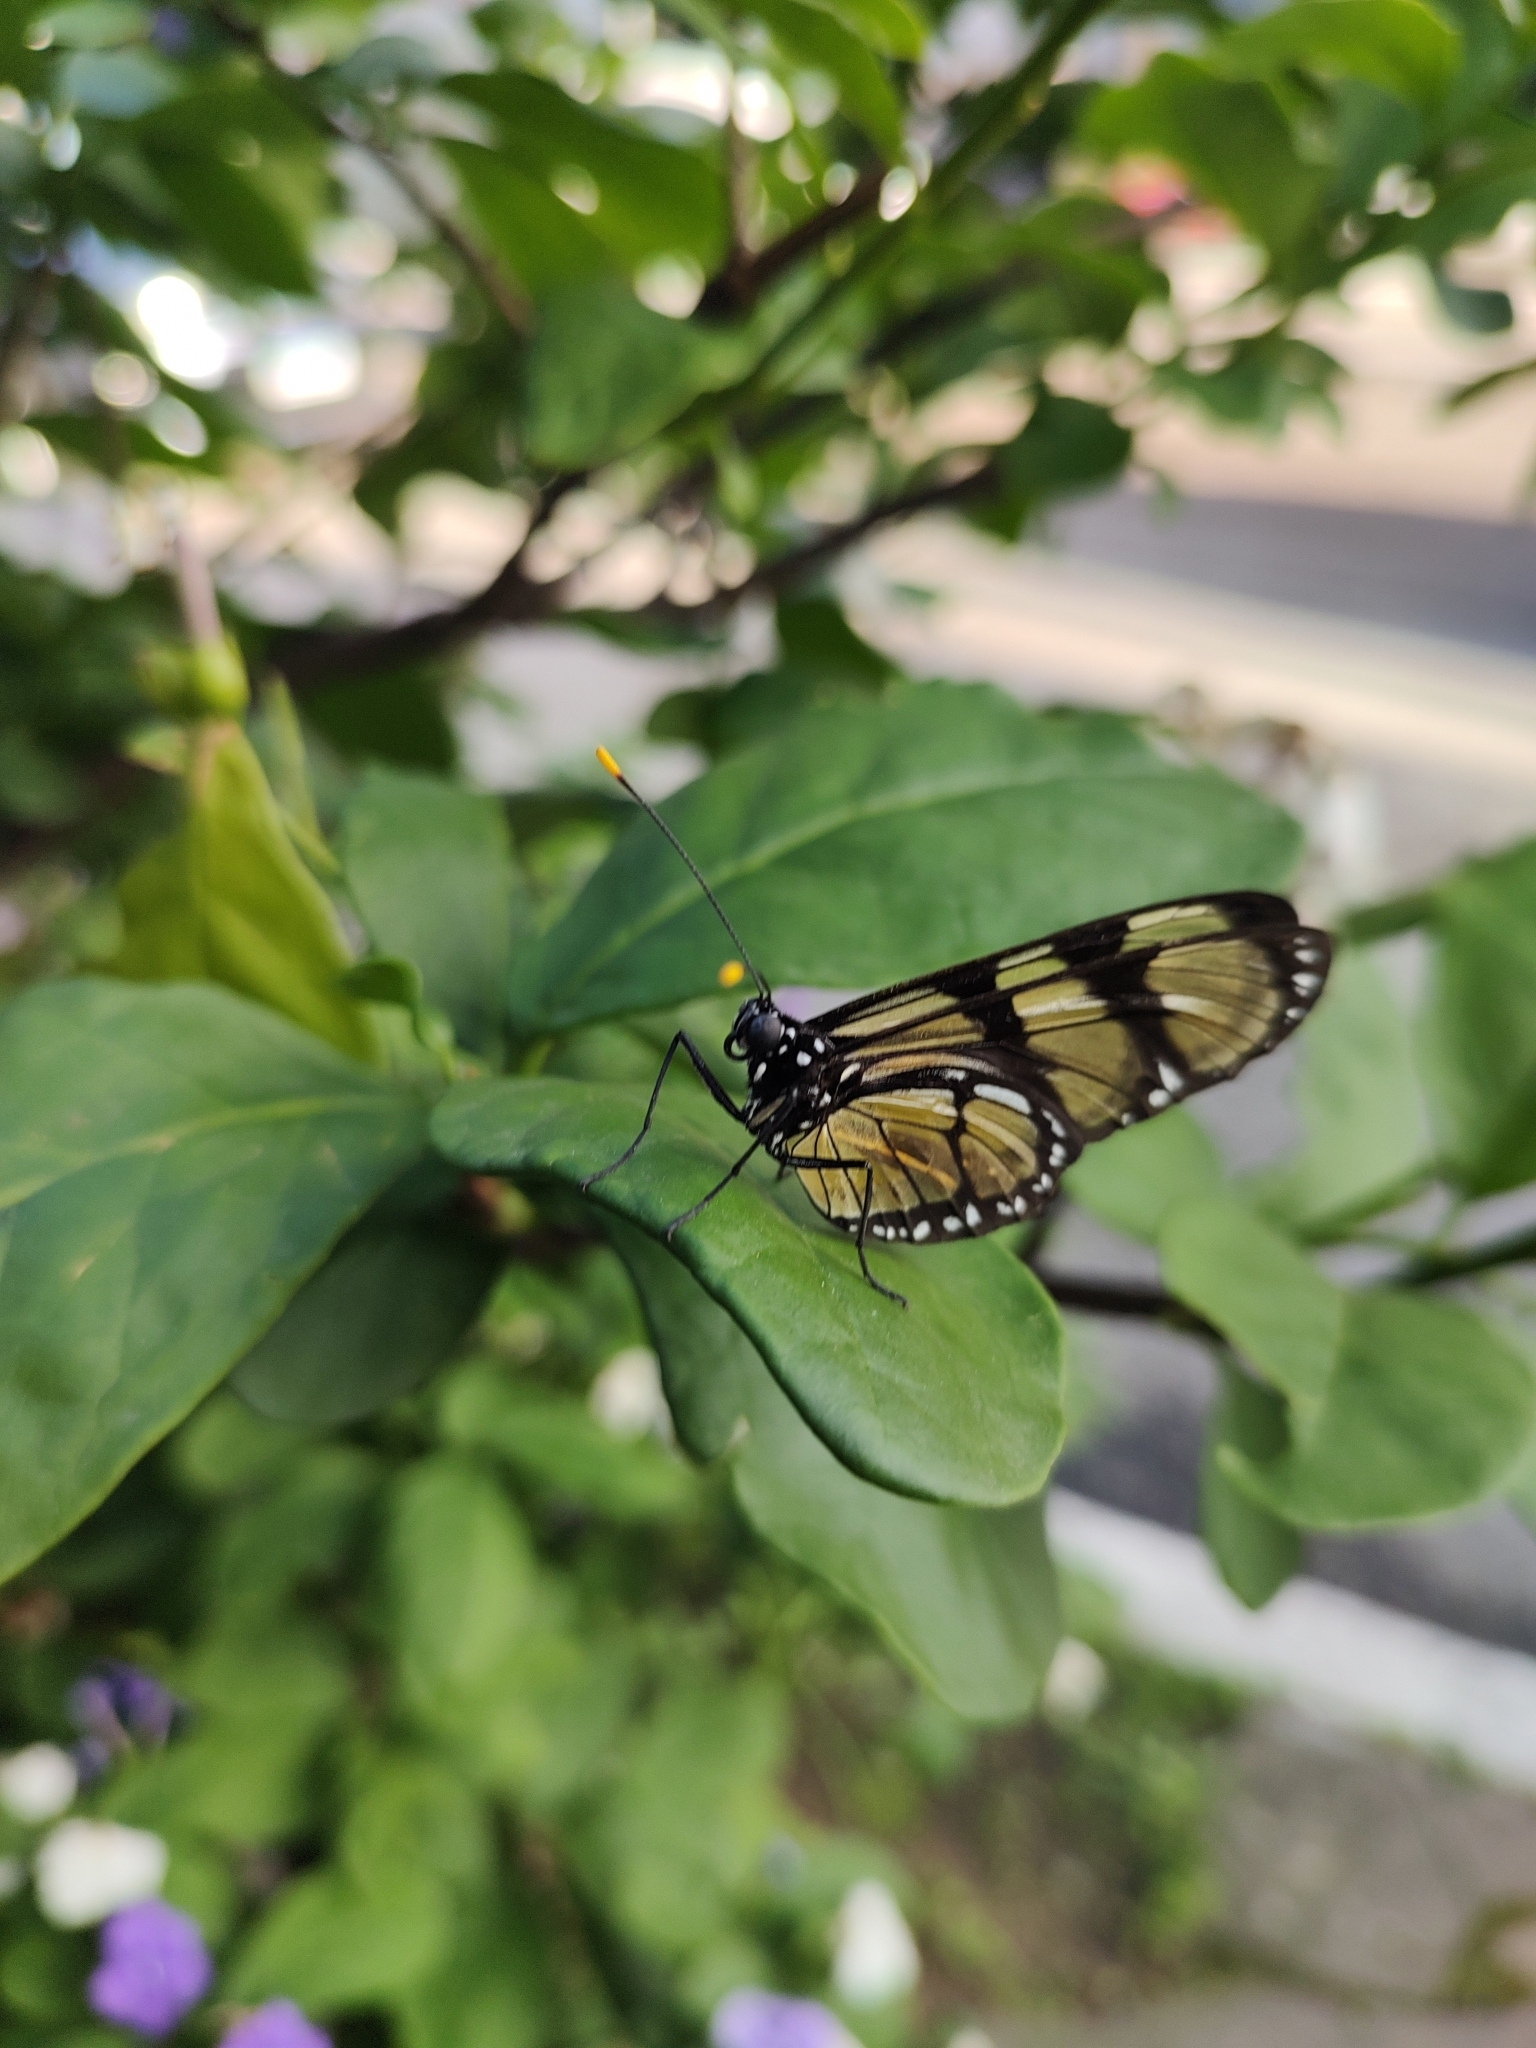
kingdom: Animalia
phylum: Arthropoda
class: Insecta
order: Lepidoptera
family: Nymphalidae
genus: Methona
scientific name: Methona themisto
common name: Themisto amberwing
